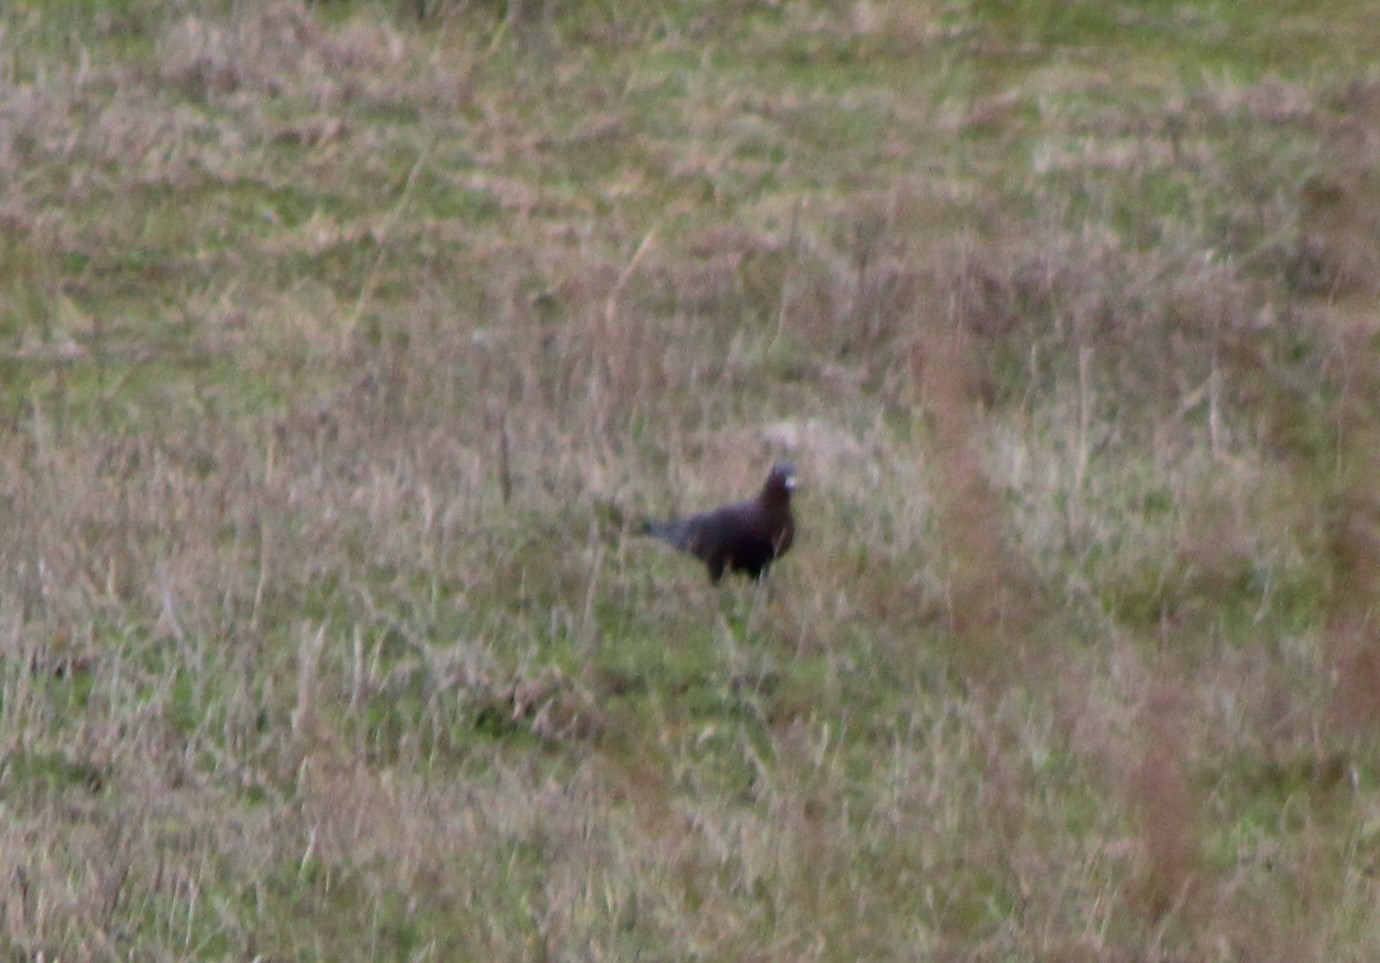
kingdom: Animalia
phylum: Chordata
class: Aves
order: Columbiformes
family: Columbidae
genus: Columba
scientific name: Columba livia
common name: Rock pigeon
